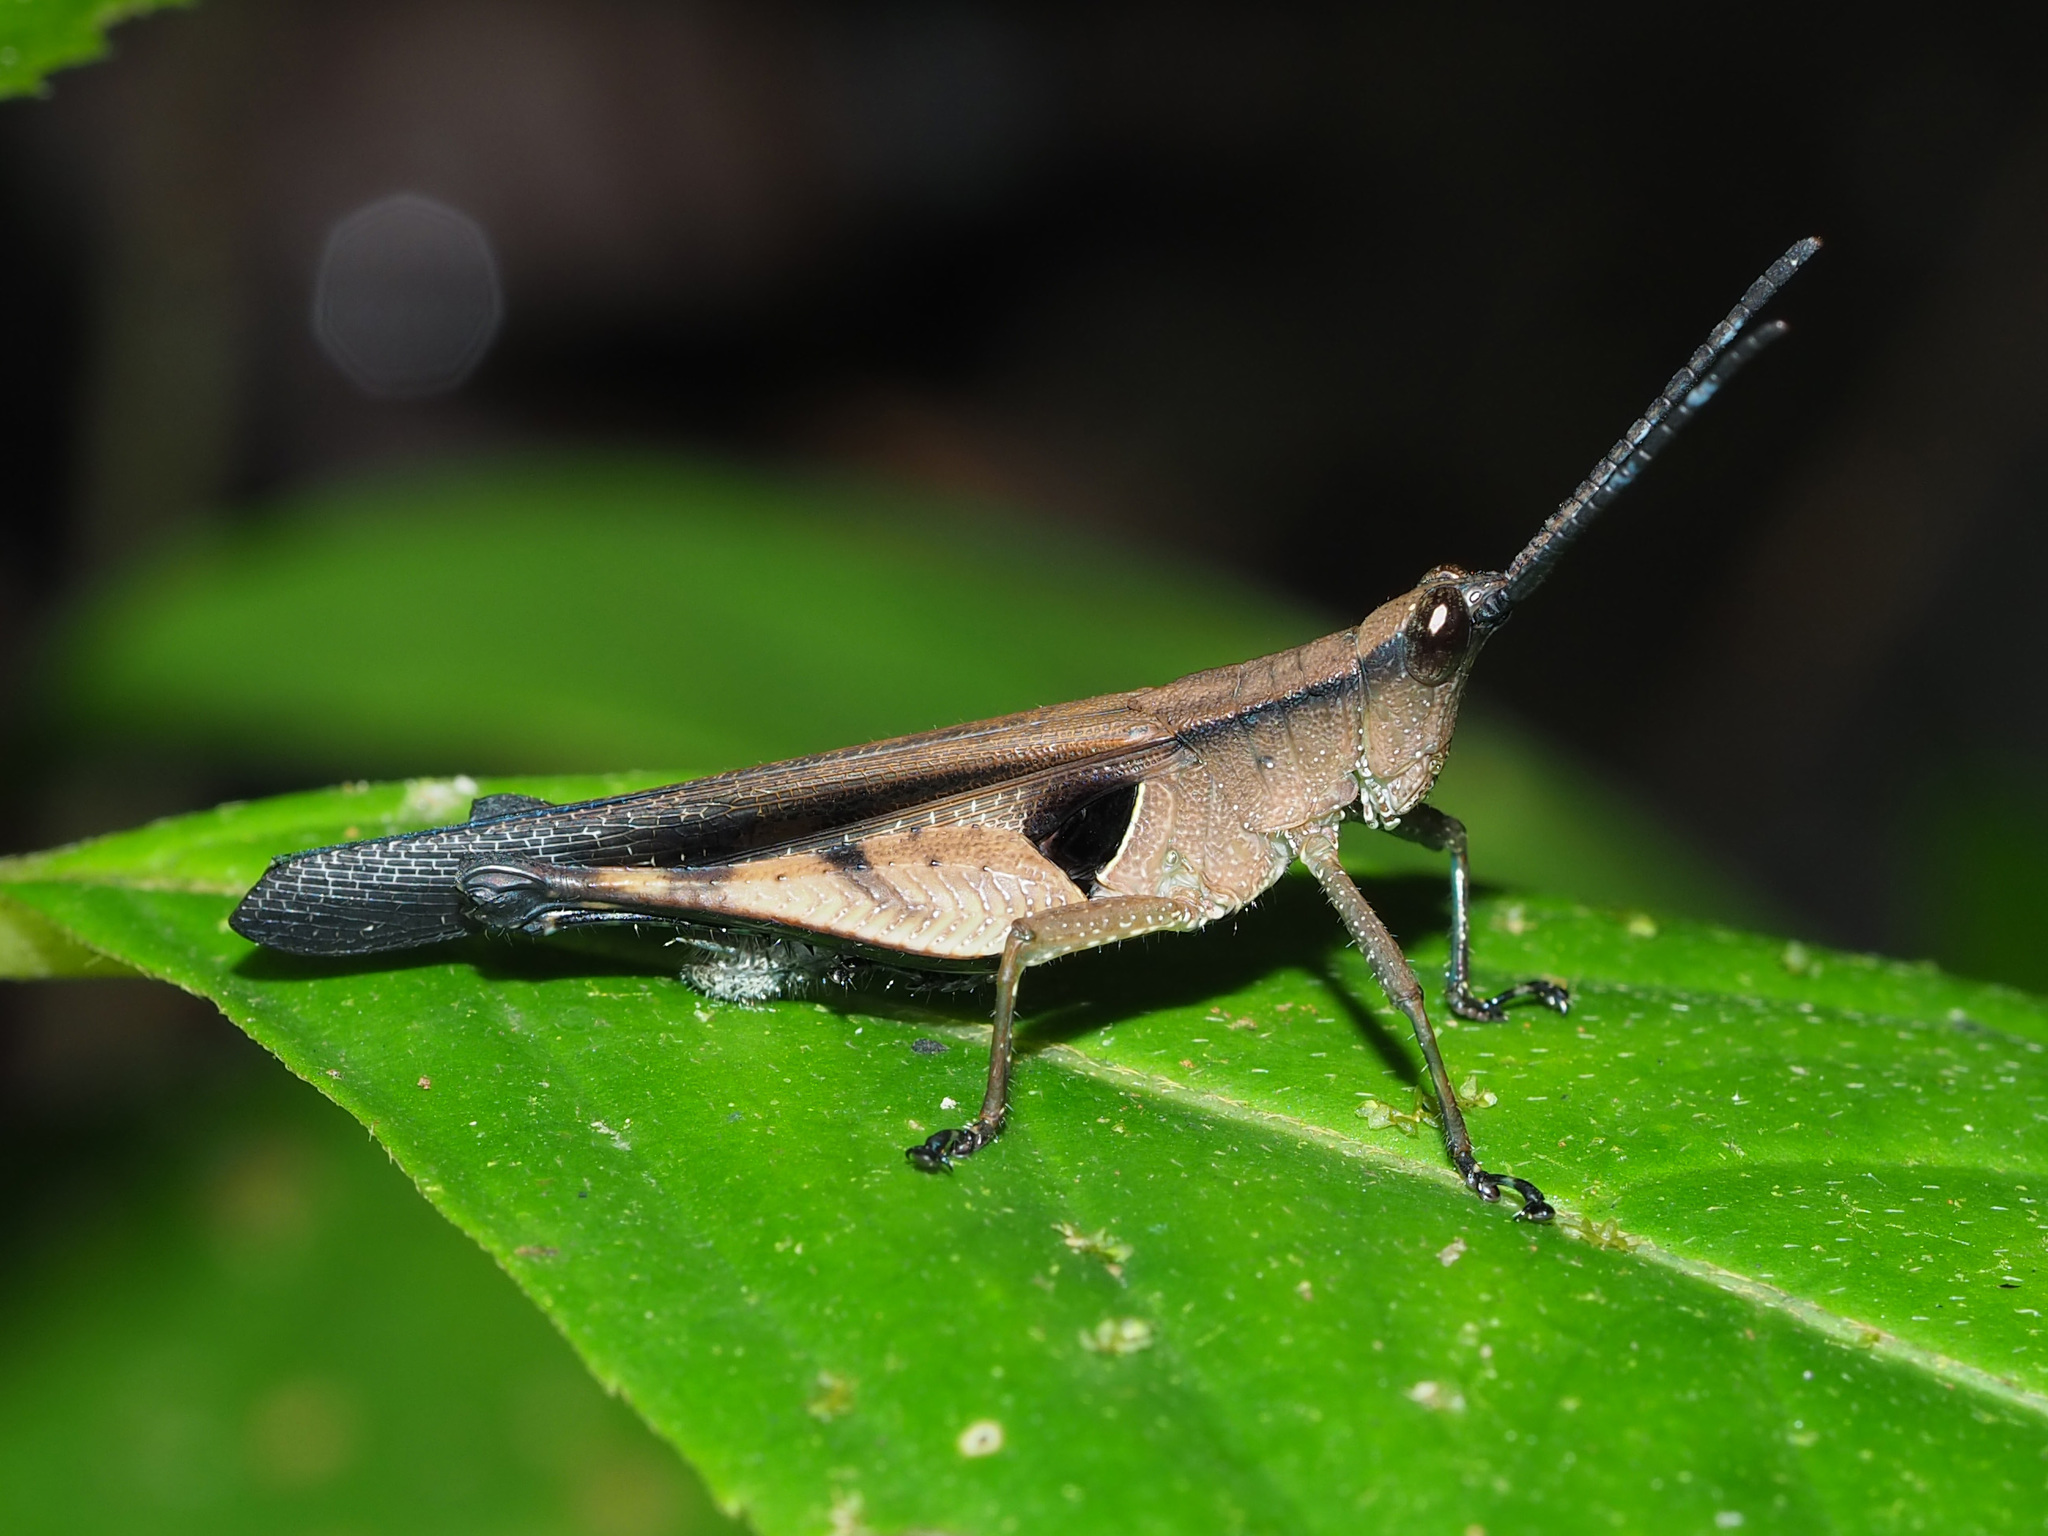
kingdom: Animalia
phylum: Arthropoda
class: Insecta
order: Orthoptera
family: Acrididae
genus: Xiphiola
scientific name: Xiphiola cyanoptera
